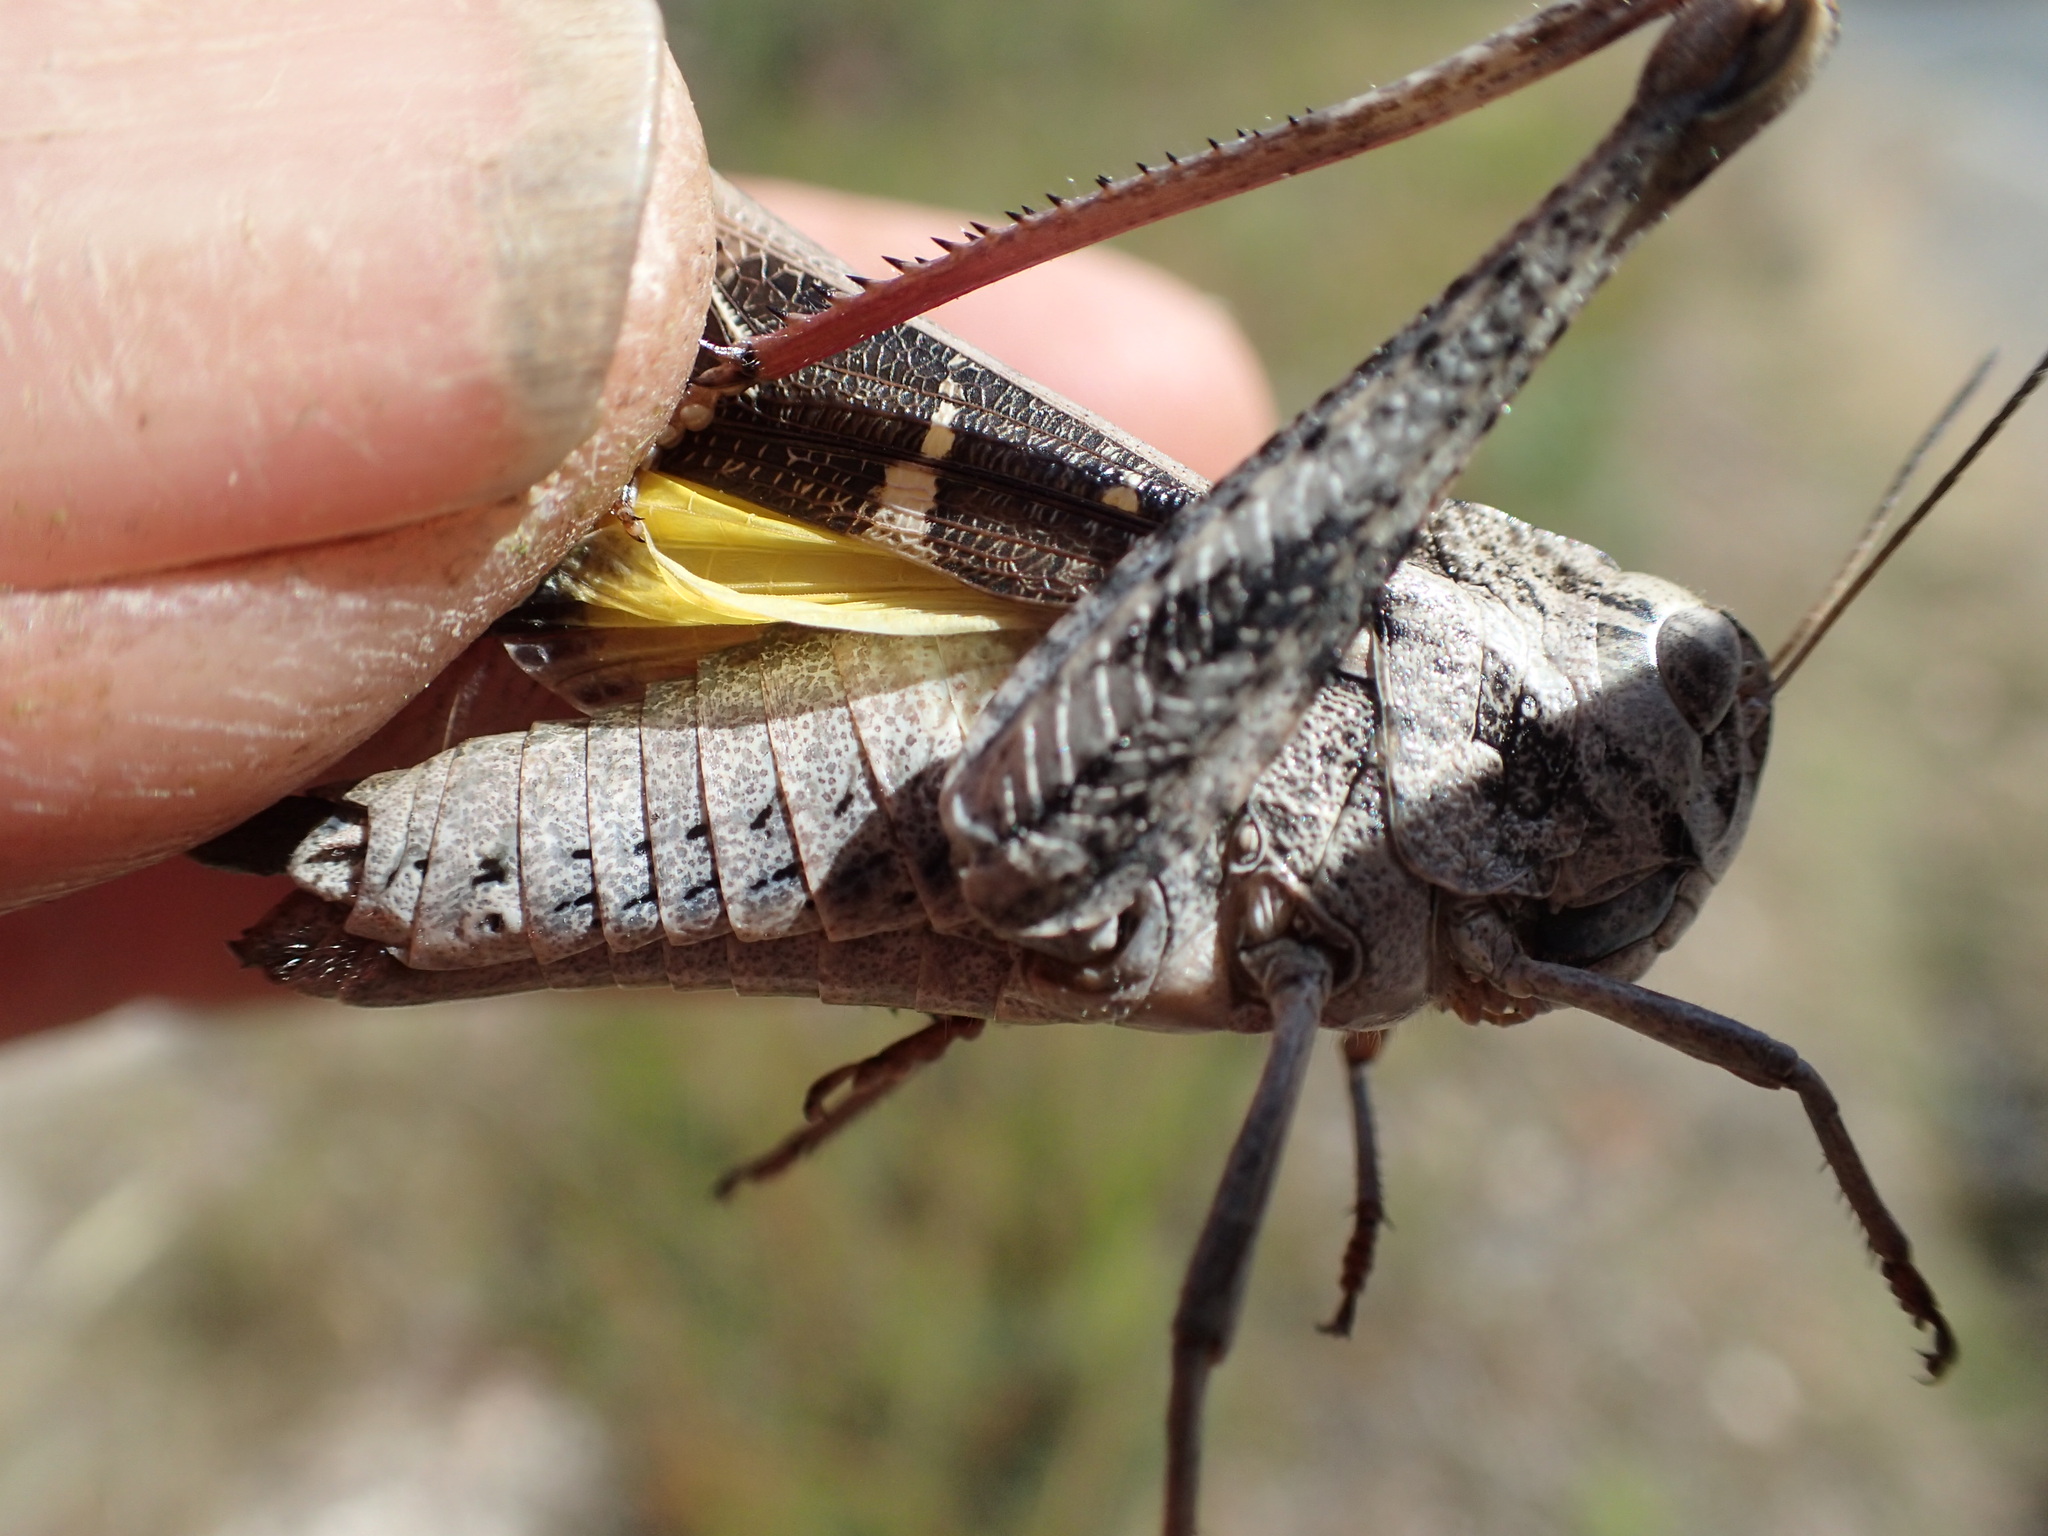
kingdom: Animalia
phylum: Arthropoda
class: Insecta
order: Orthoptera
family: Acrididae
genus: Gastrimargus
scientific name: Gastrimargus musicus
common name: Yellow-winged locust
